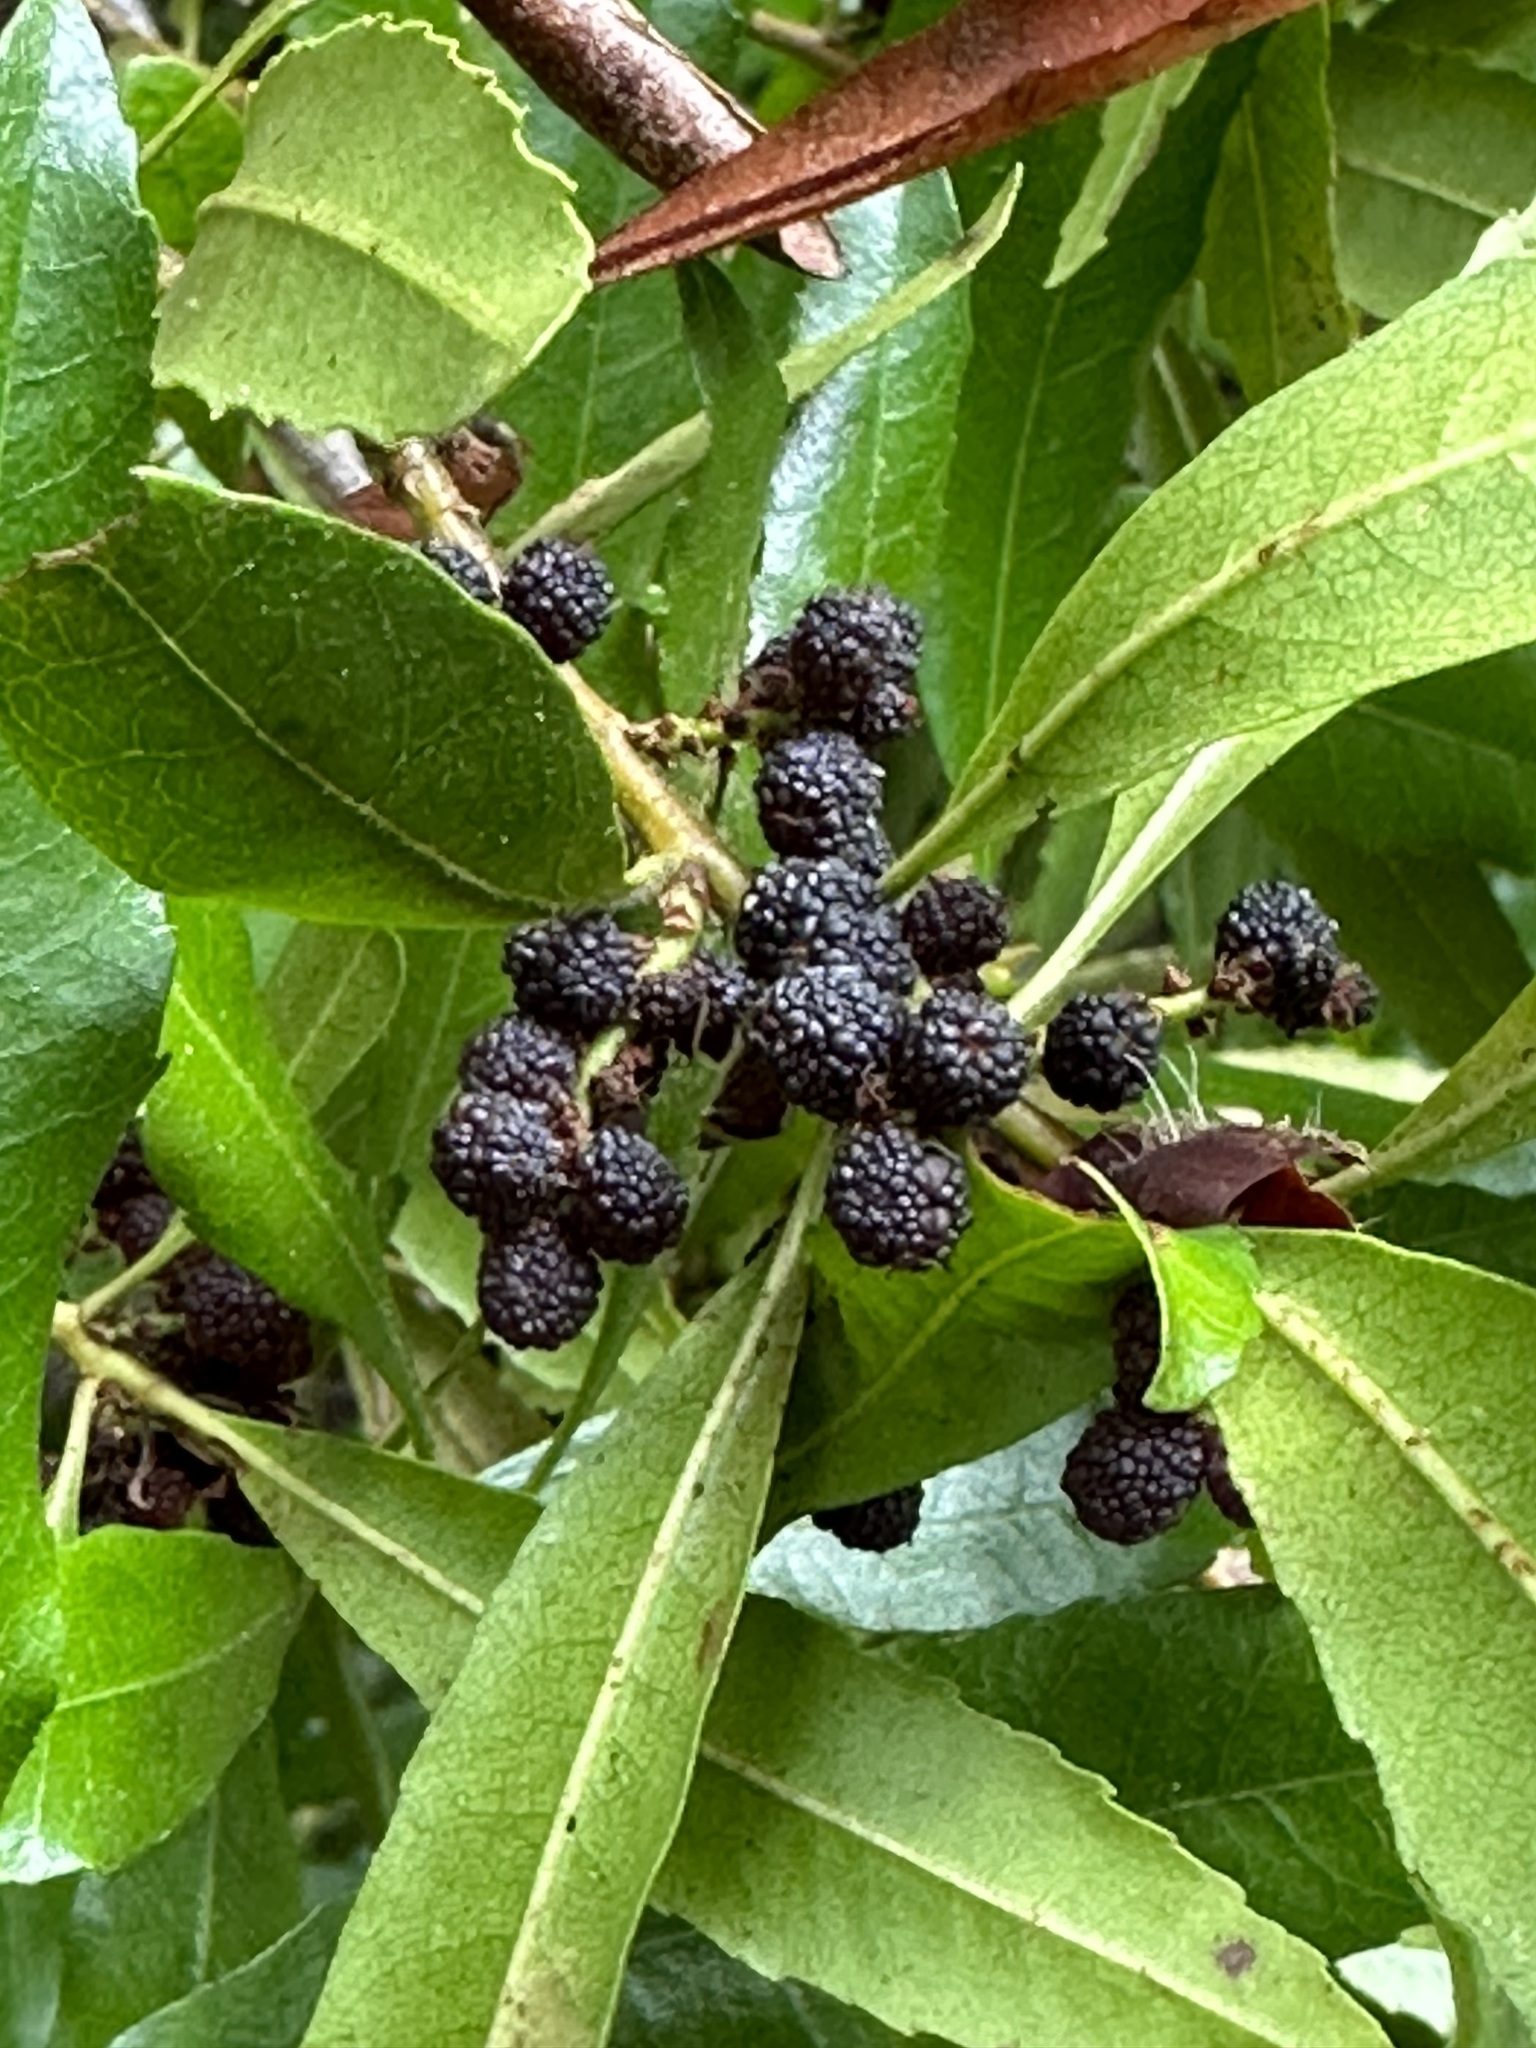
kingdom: Plantae
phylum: Tracheophyta
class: Magnoliopsida
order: Fagales
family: Myricaceae
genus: Morella
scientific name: Morella californica
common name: California wax-myrtle
